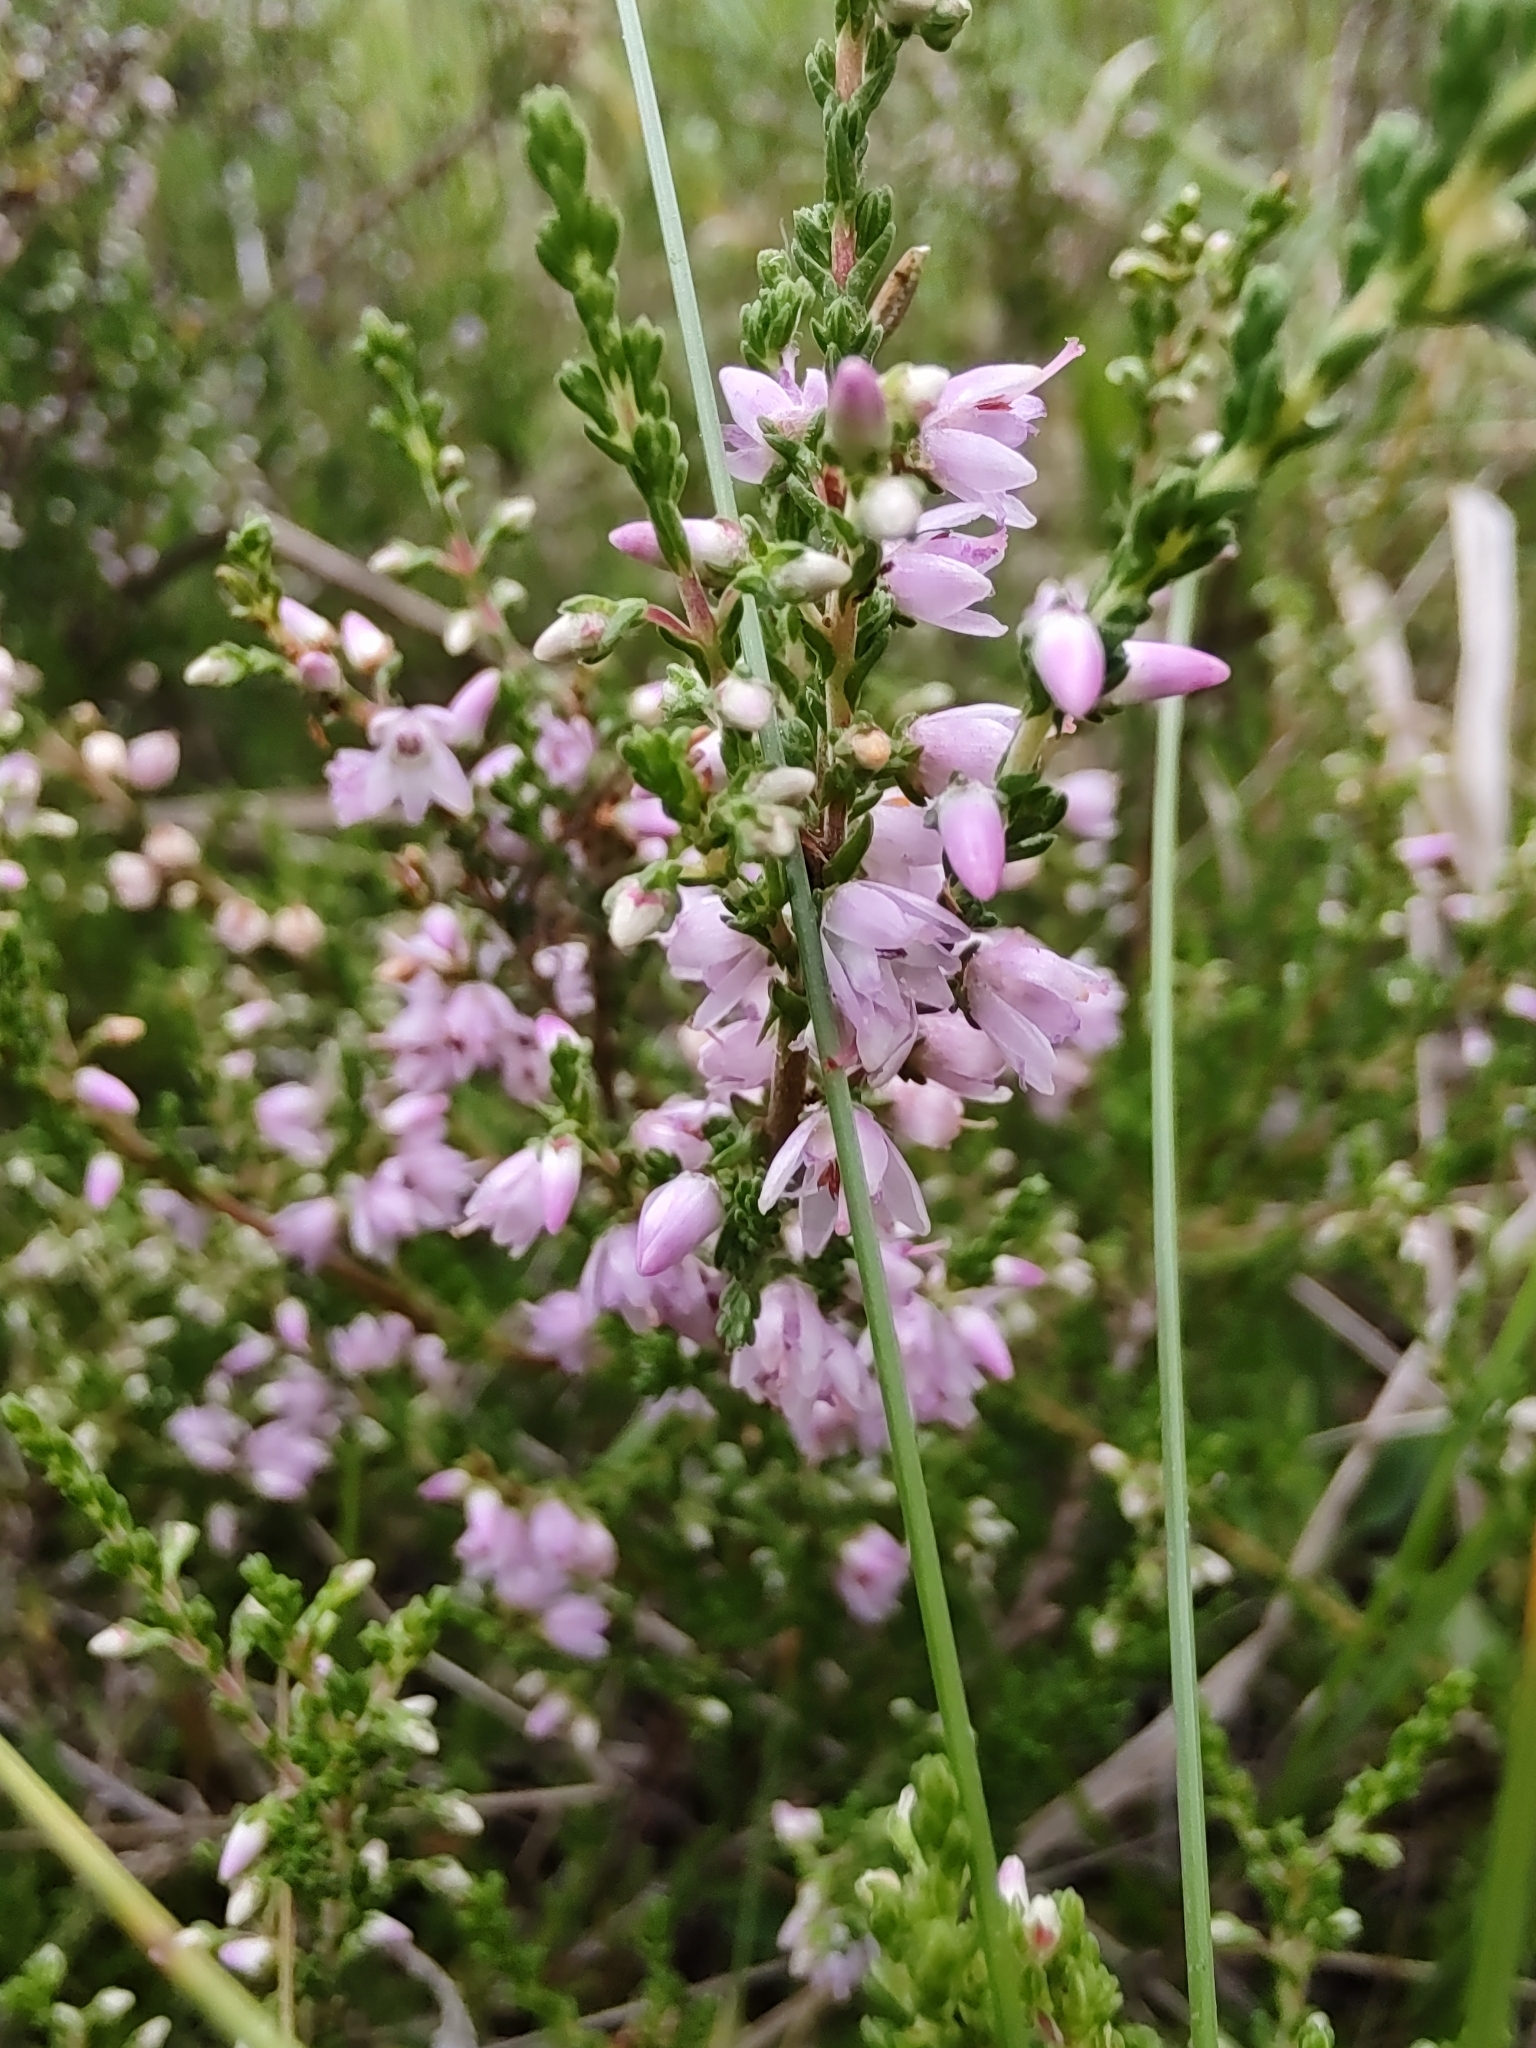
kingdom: Plantae
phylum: Tracheophyta
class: Magnoliopsida
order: Ericales
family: Ericaceae
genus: Calluna
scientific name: Calluna vulgaris
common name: Heather
